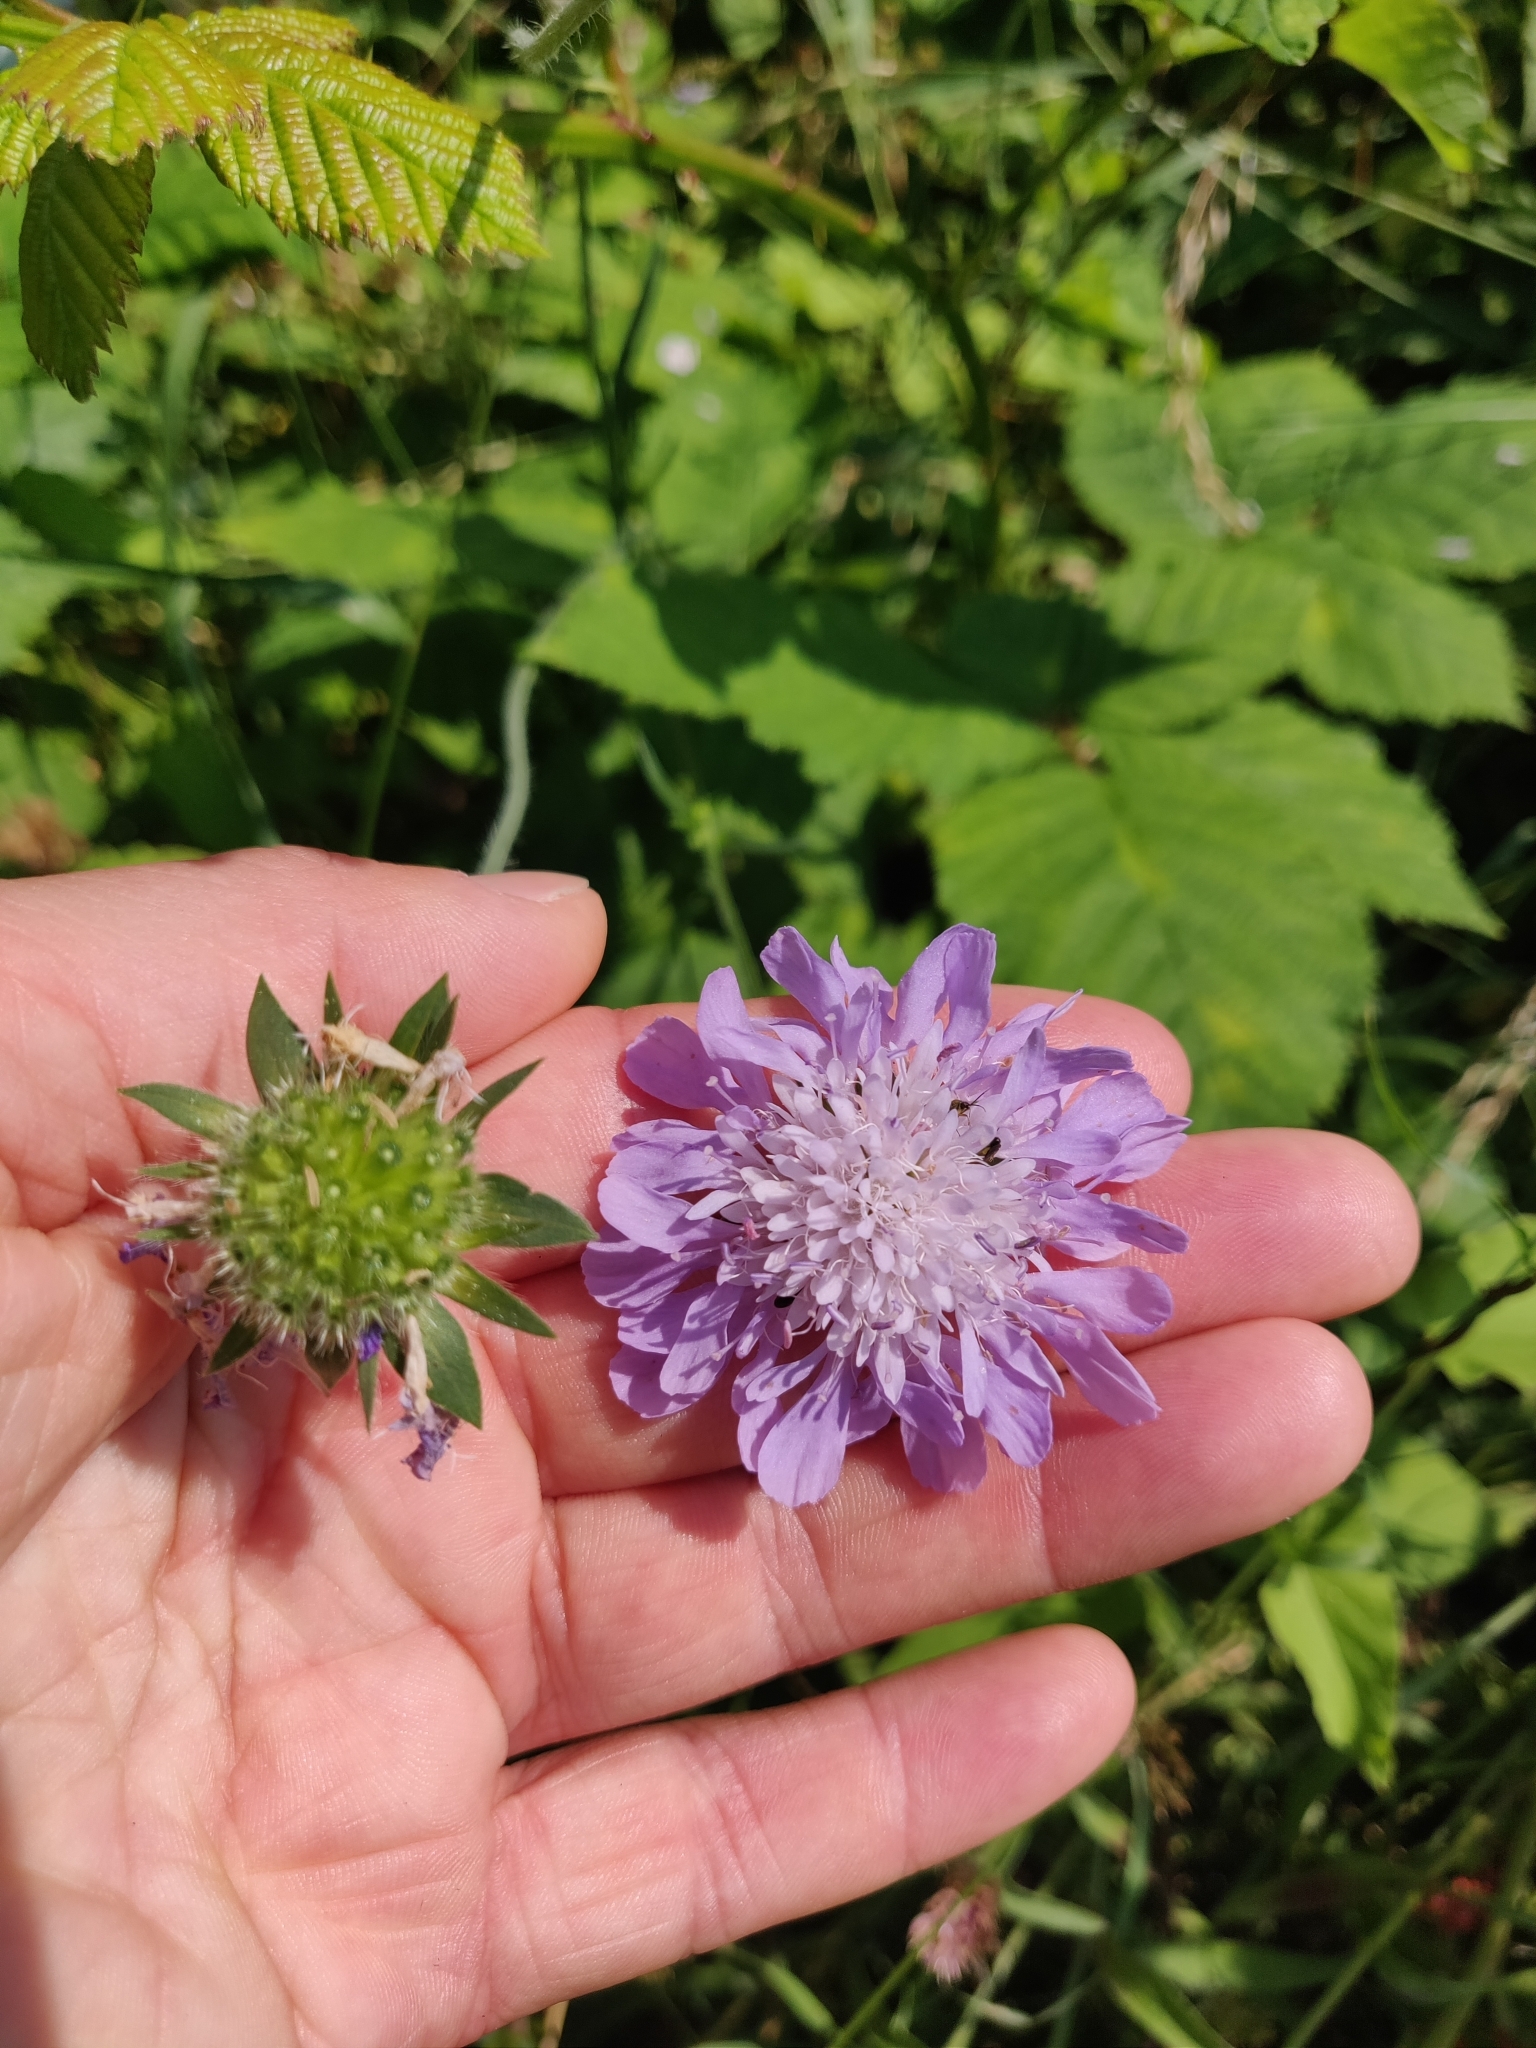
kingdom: Plantae
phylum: Tracheophyta
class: Magnoliopsida
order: Dipsacales
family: Caprifoliaceae
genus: Knautia
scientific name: Knautia arvensis
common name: Field scabiosa
